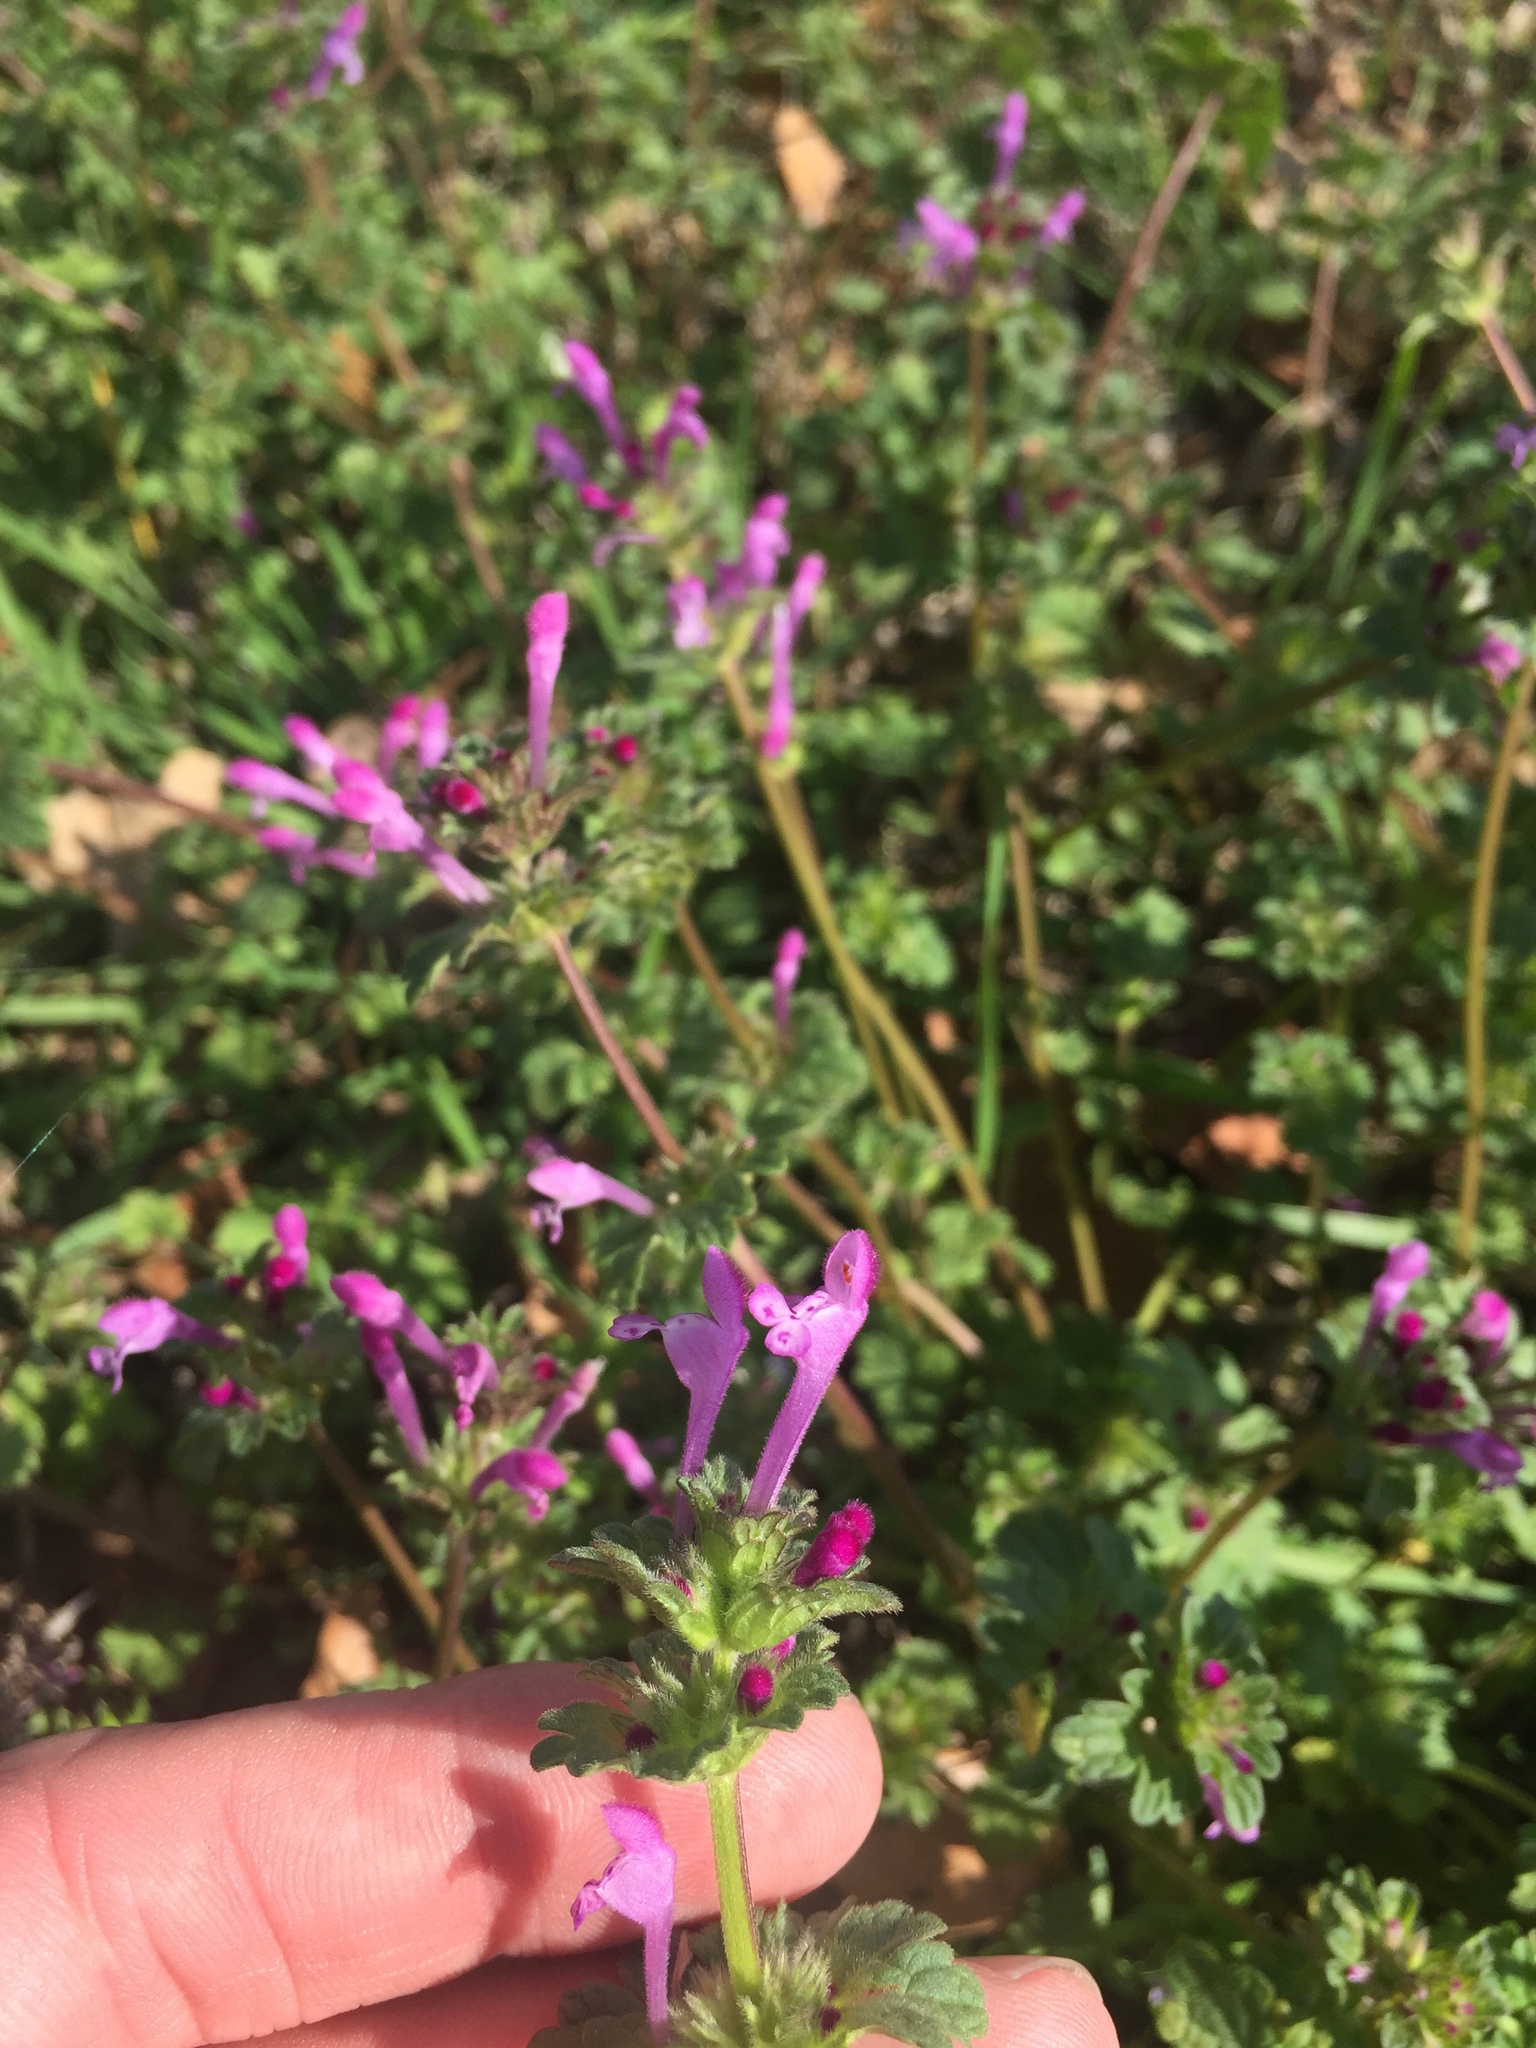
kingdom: Plantae
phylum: Tracheophyta
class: Magnoliopsida
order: Lamiales
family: Lamiaceae
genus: Lamium
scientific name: Lamium amplexicaule
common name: Henbit dead-nettle
